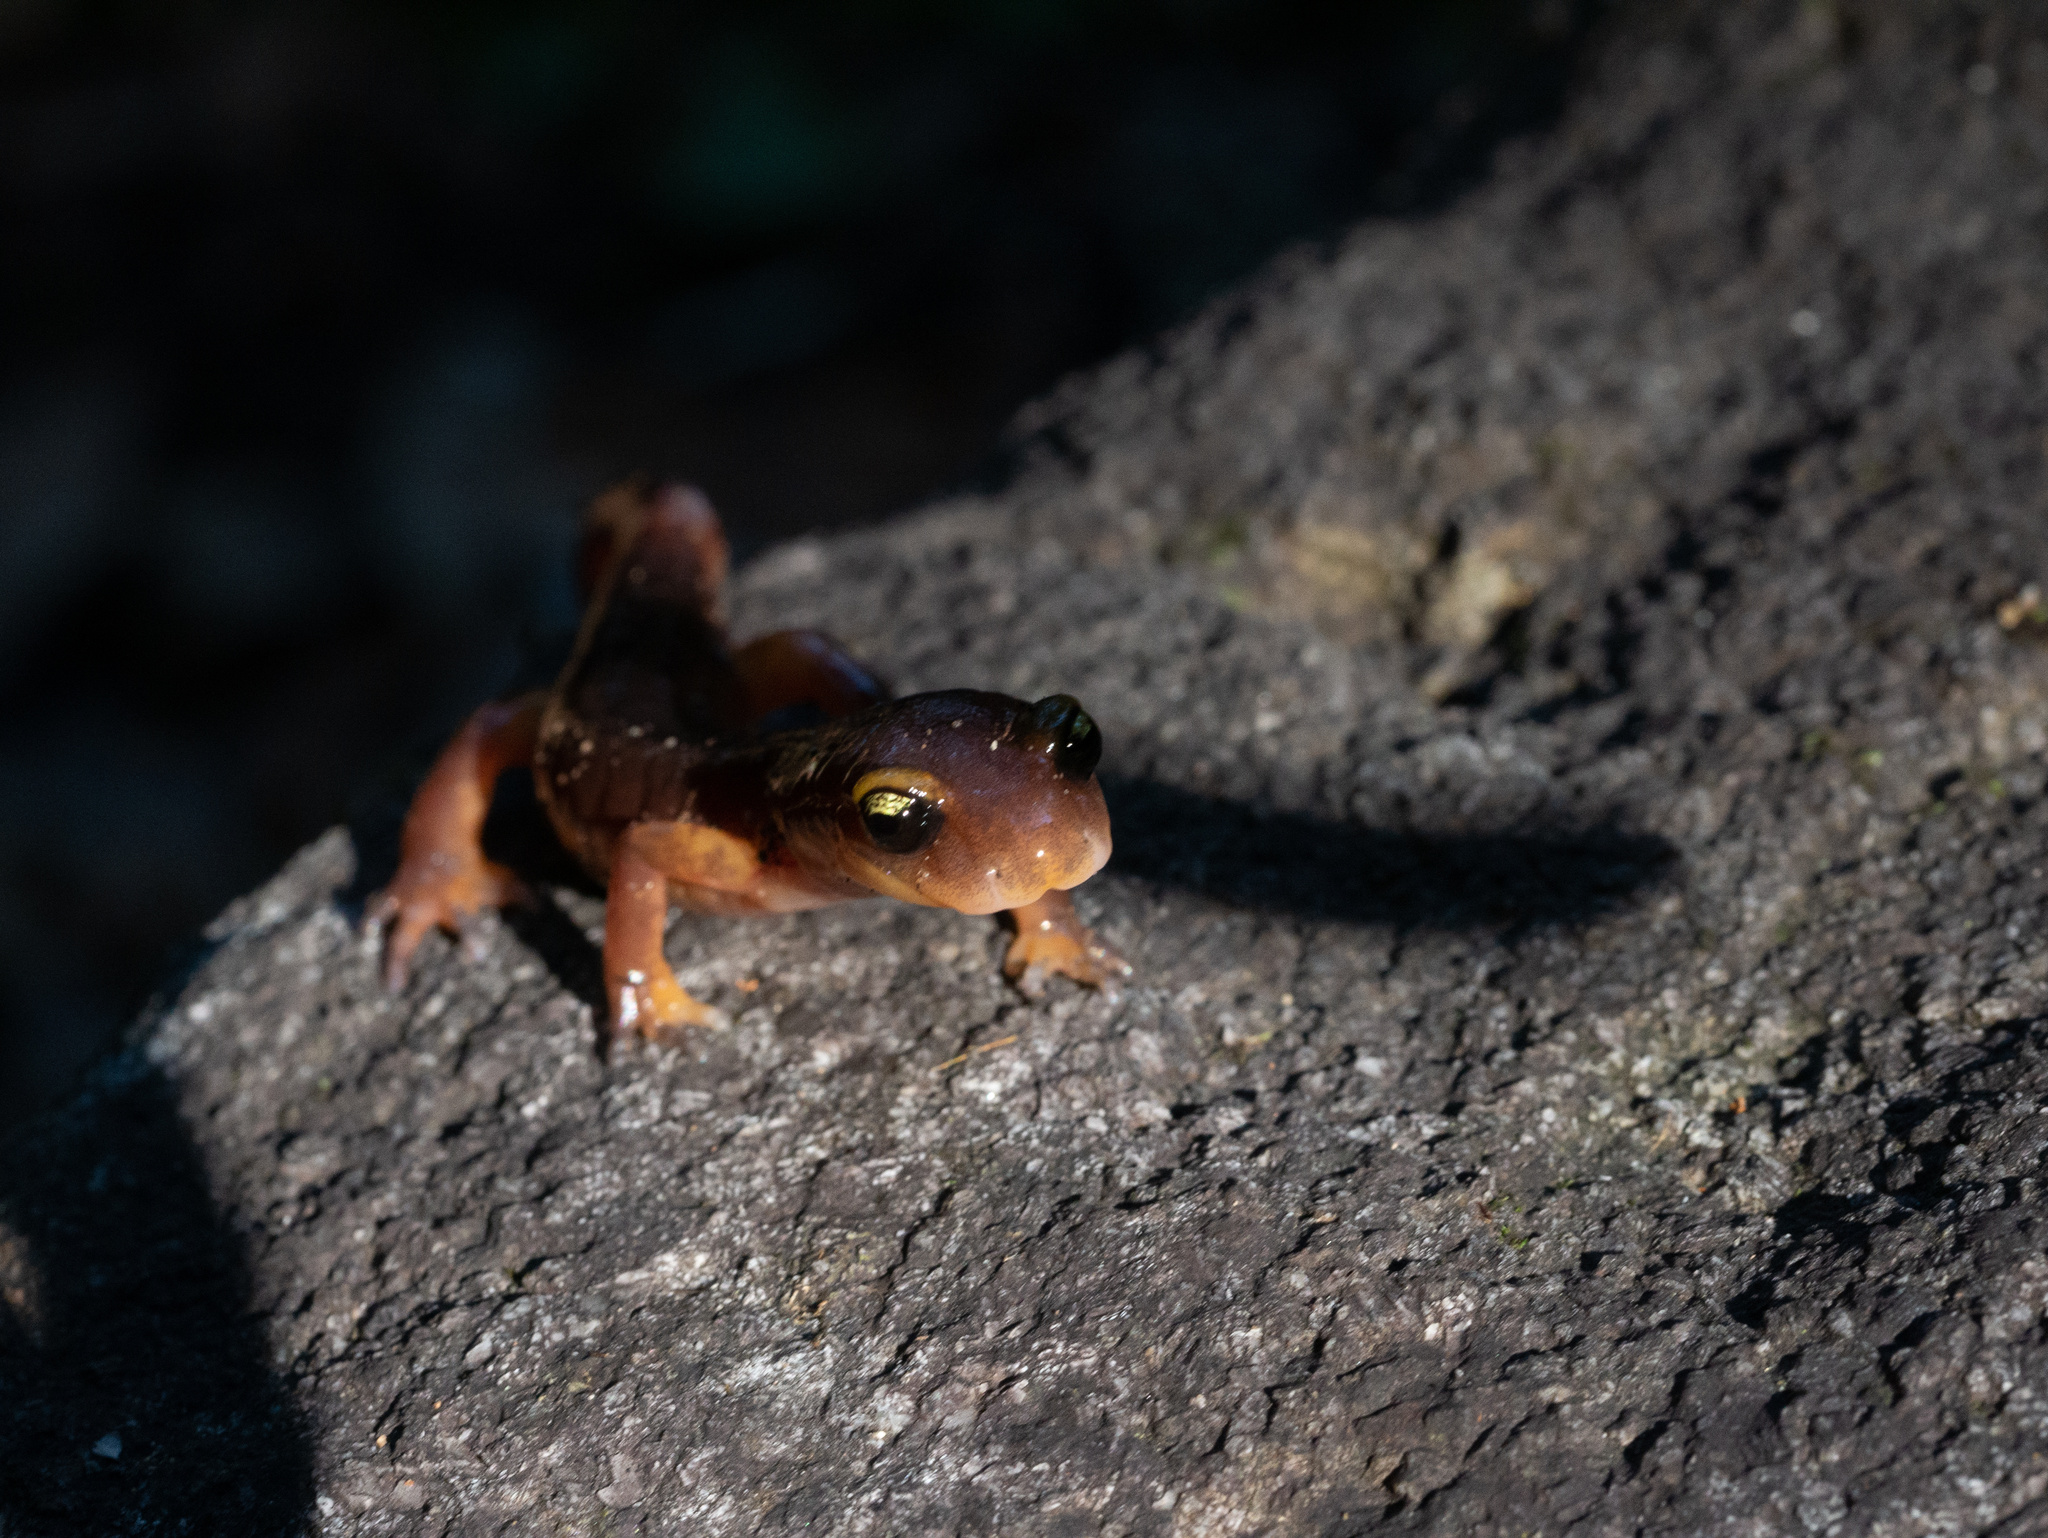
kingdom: Animalia
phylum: Chordata
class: Amphibia
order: Caudata
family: Plethodontidae
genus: Ensatina
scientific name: Ensatina eschscholtzii
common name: Ensatina
